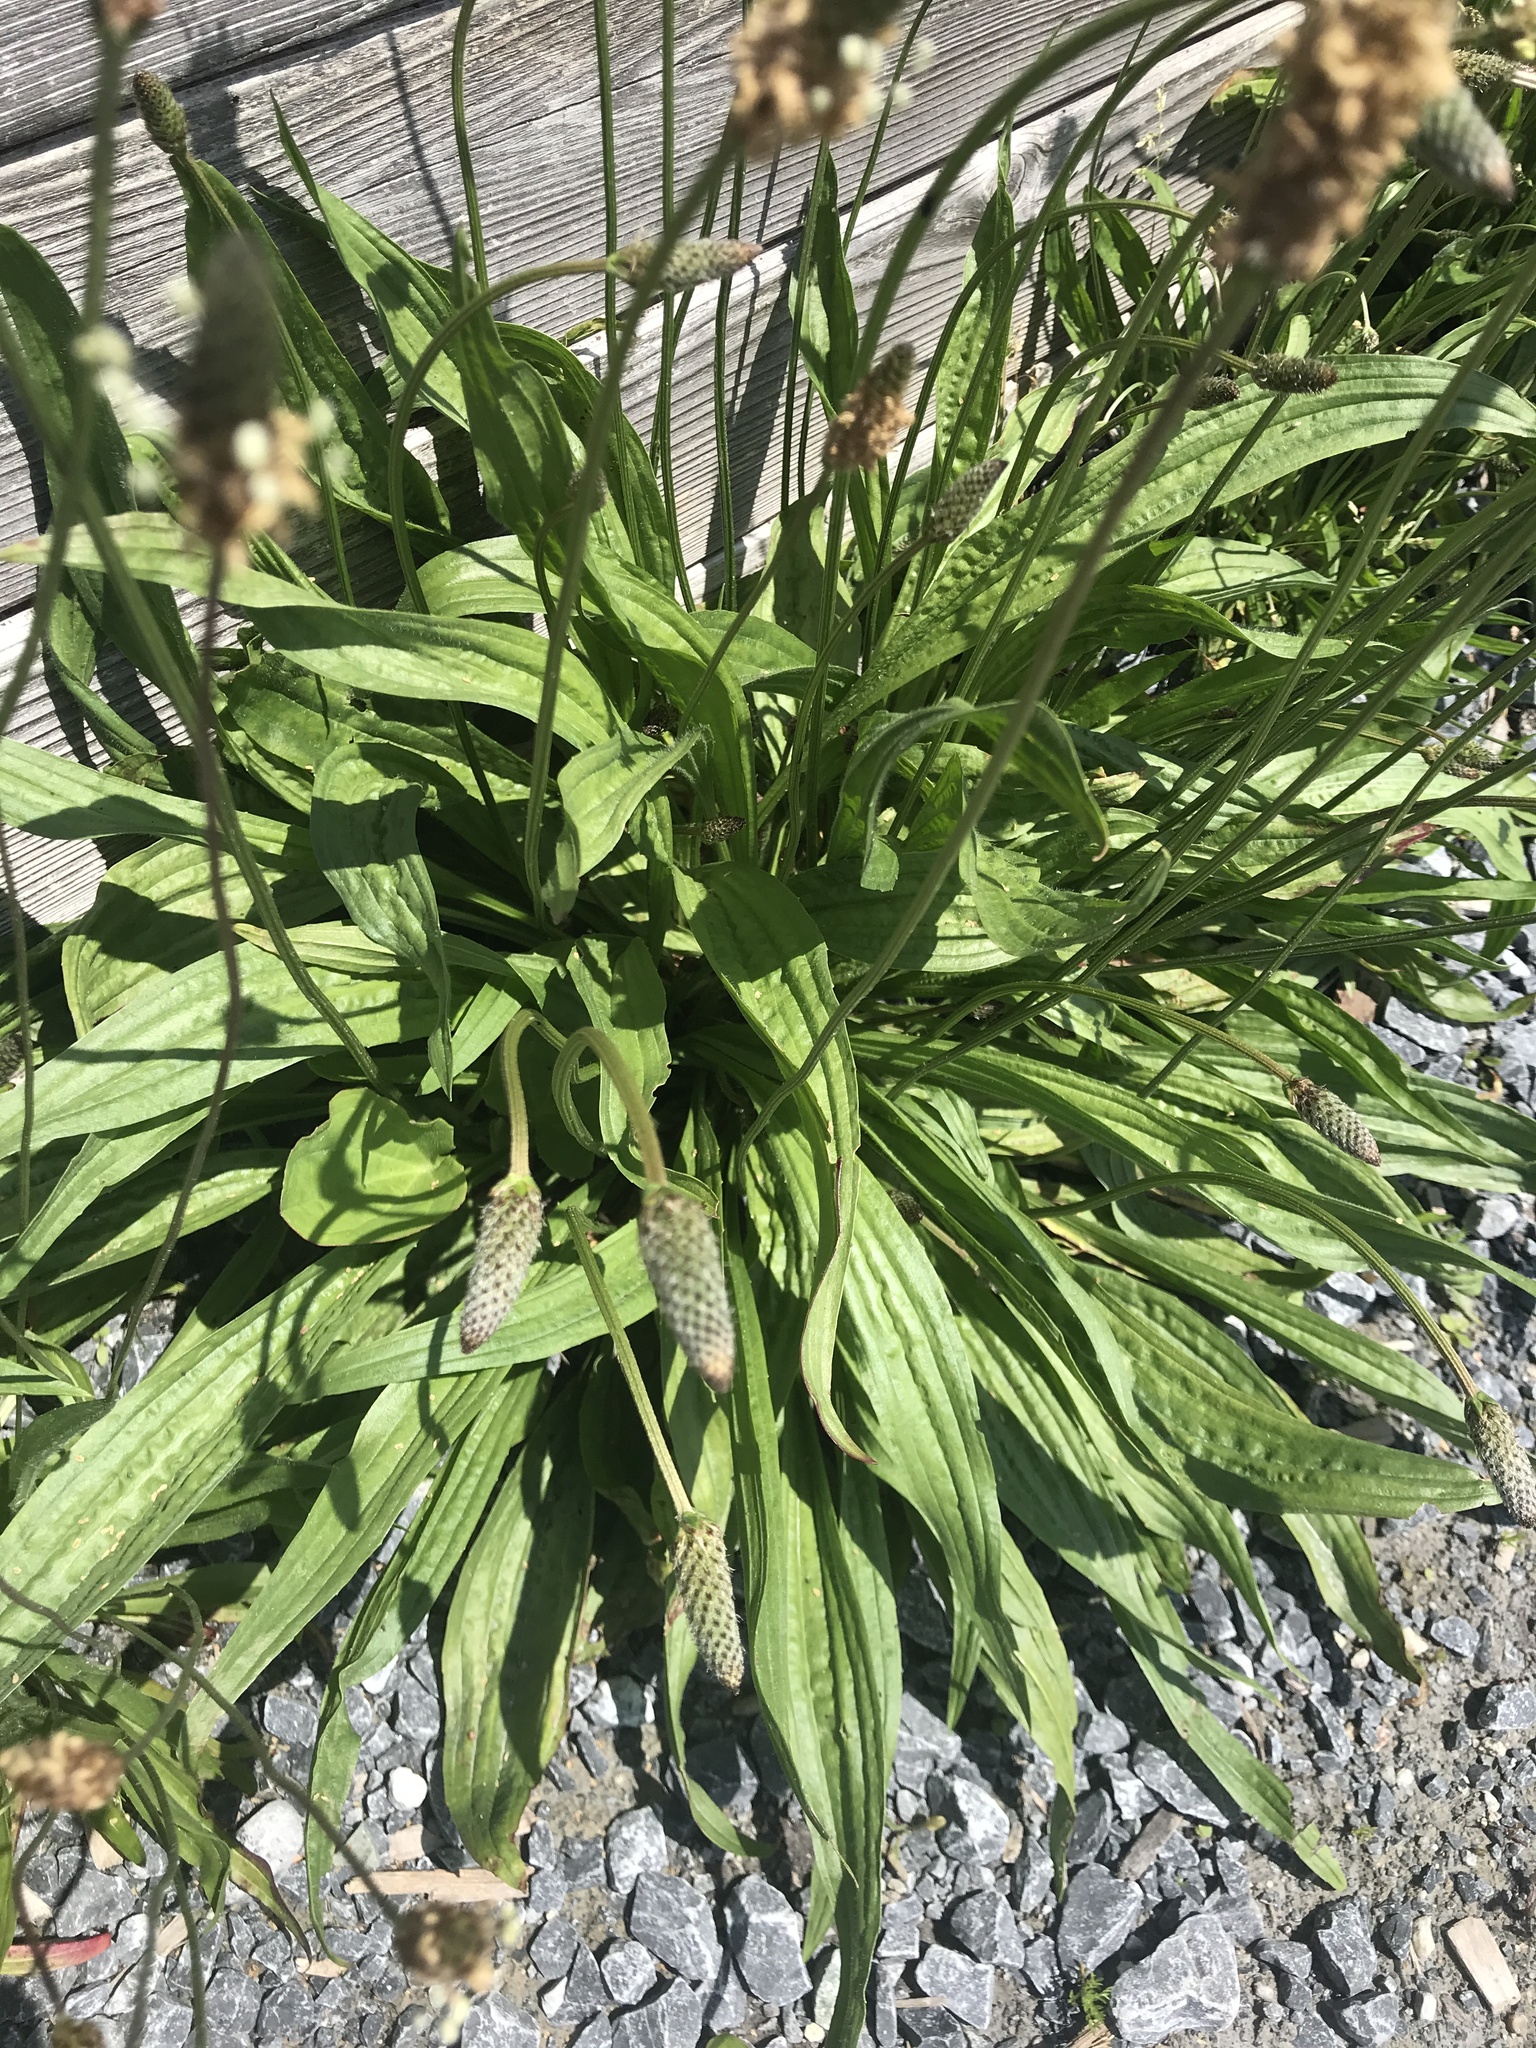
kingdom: Plantae
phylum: Tracheophyta
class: Magnoliopsida
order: Lamiales
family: Plantaginaceae
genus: Plantago
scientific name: Plantago lanceolata
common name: Ribwort plantain
